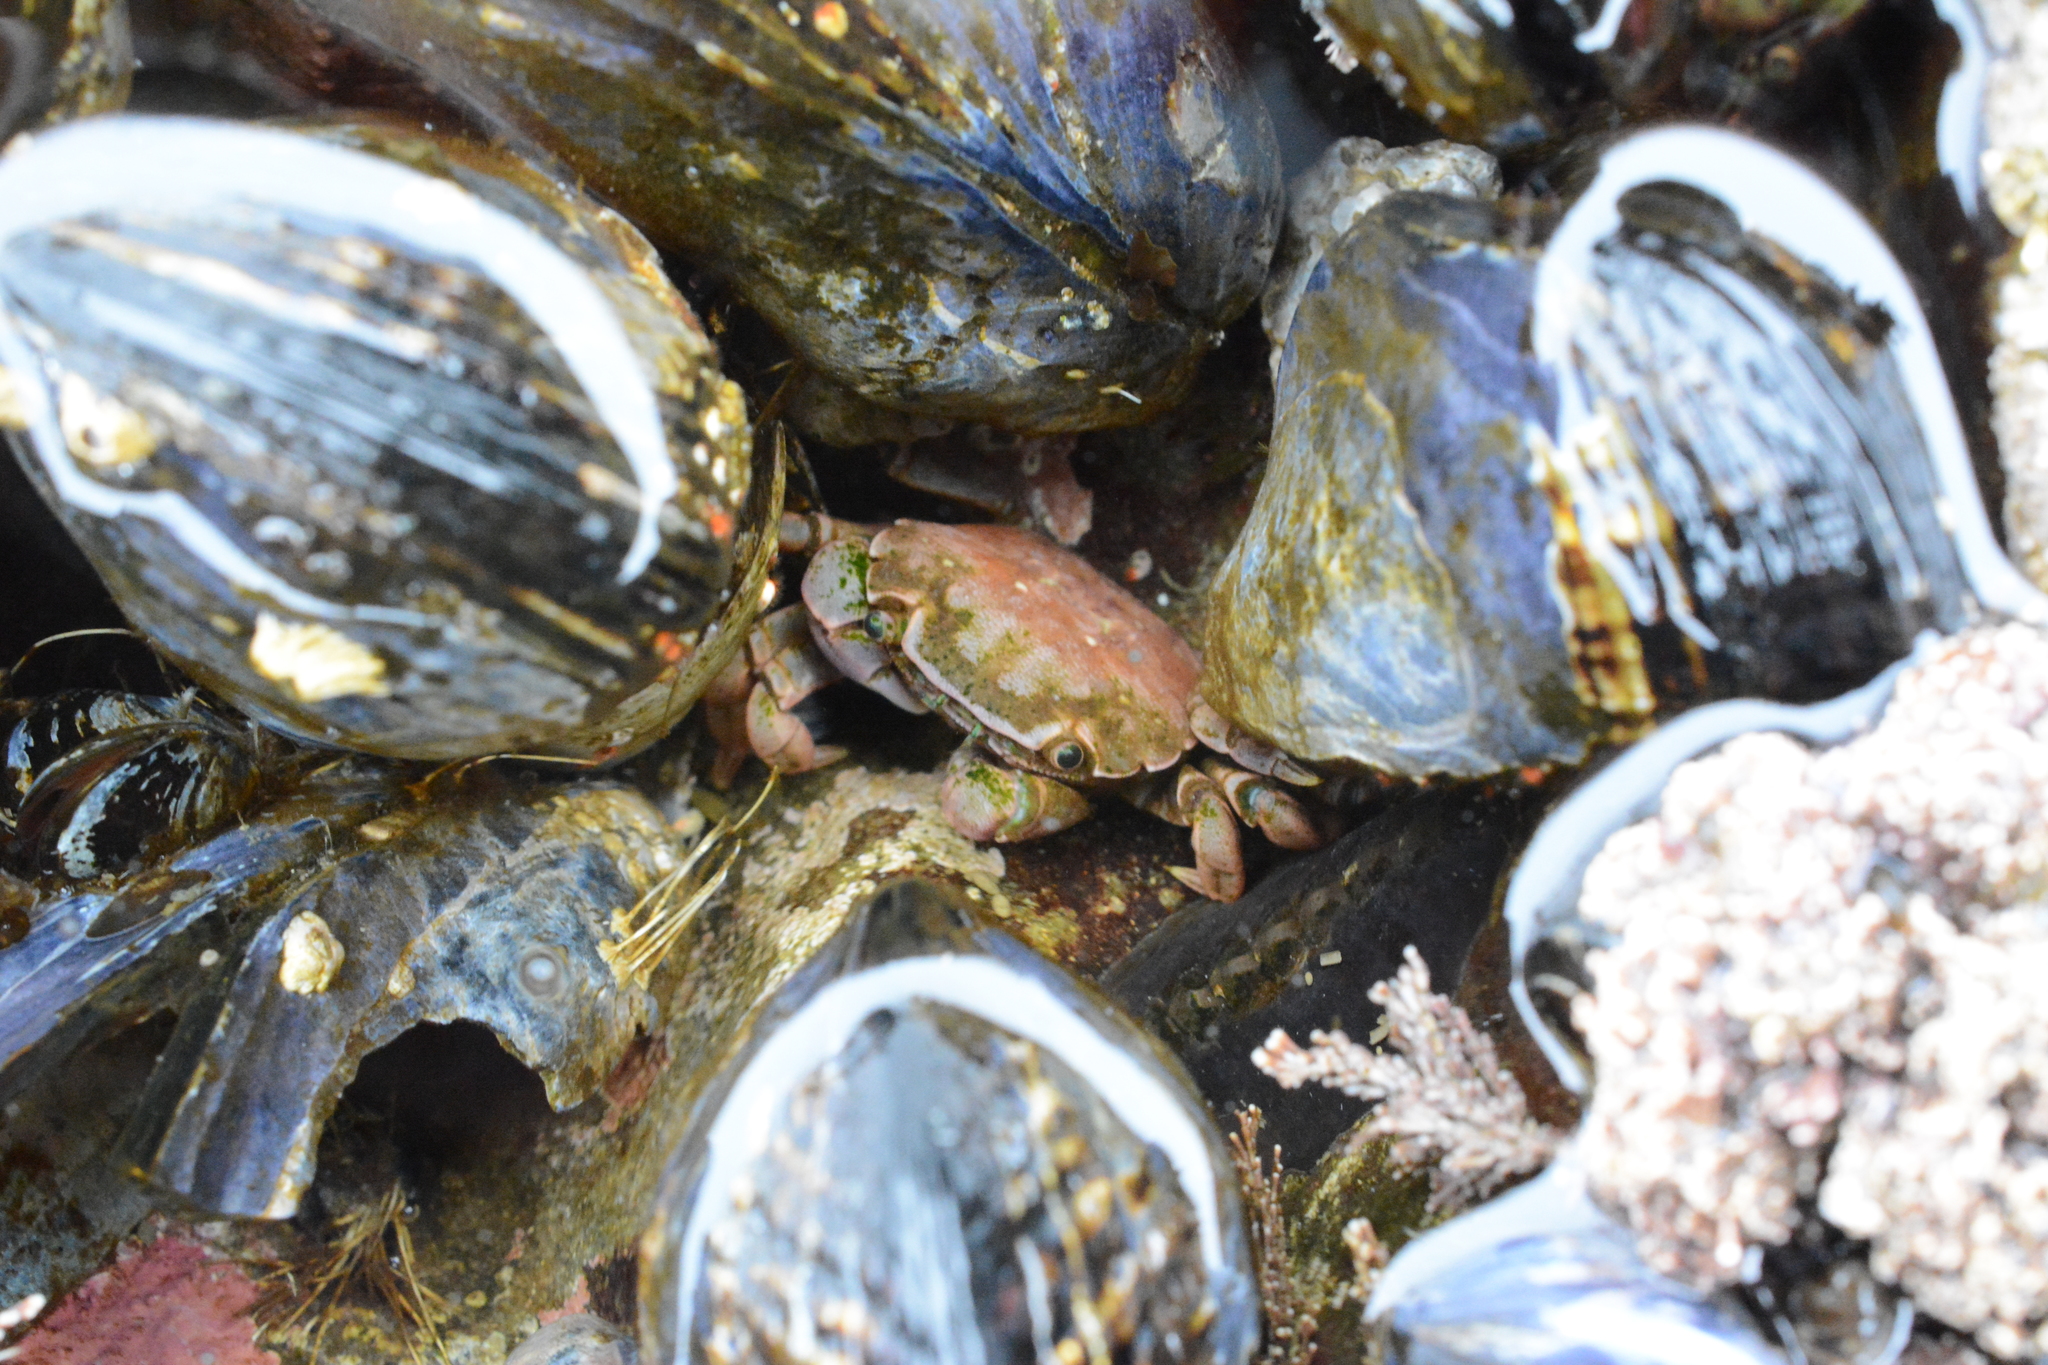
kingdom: Animalia
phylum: Arthropoda
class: Malacostraca
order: Decapoda
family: Varunidae
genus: Hemigrapsus
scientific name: Hemigrapsus nudus
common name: Purple shore crab
